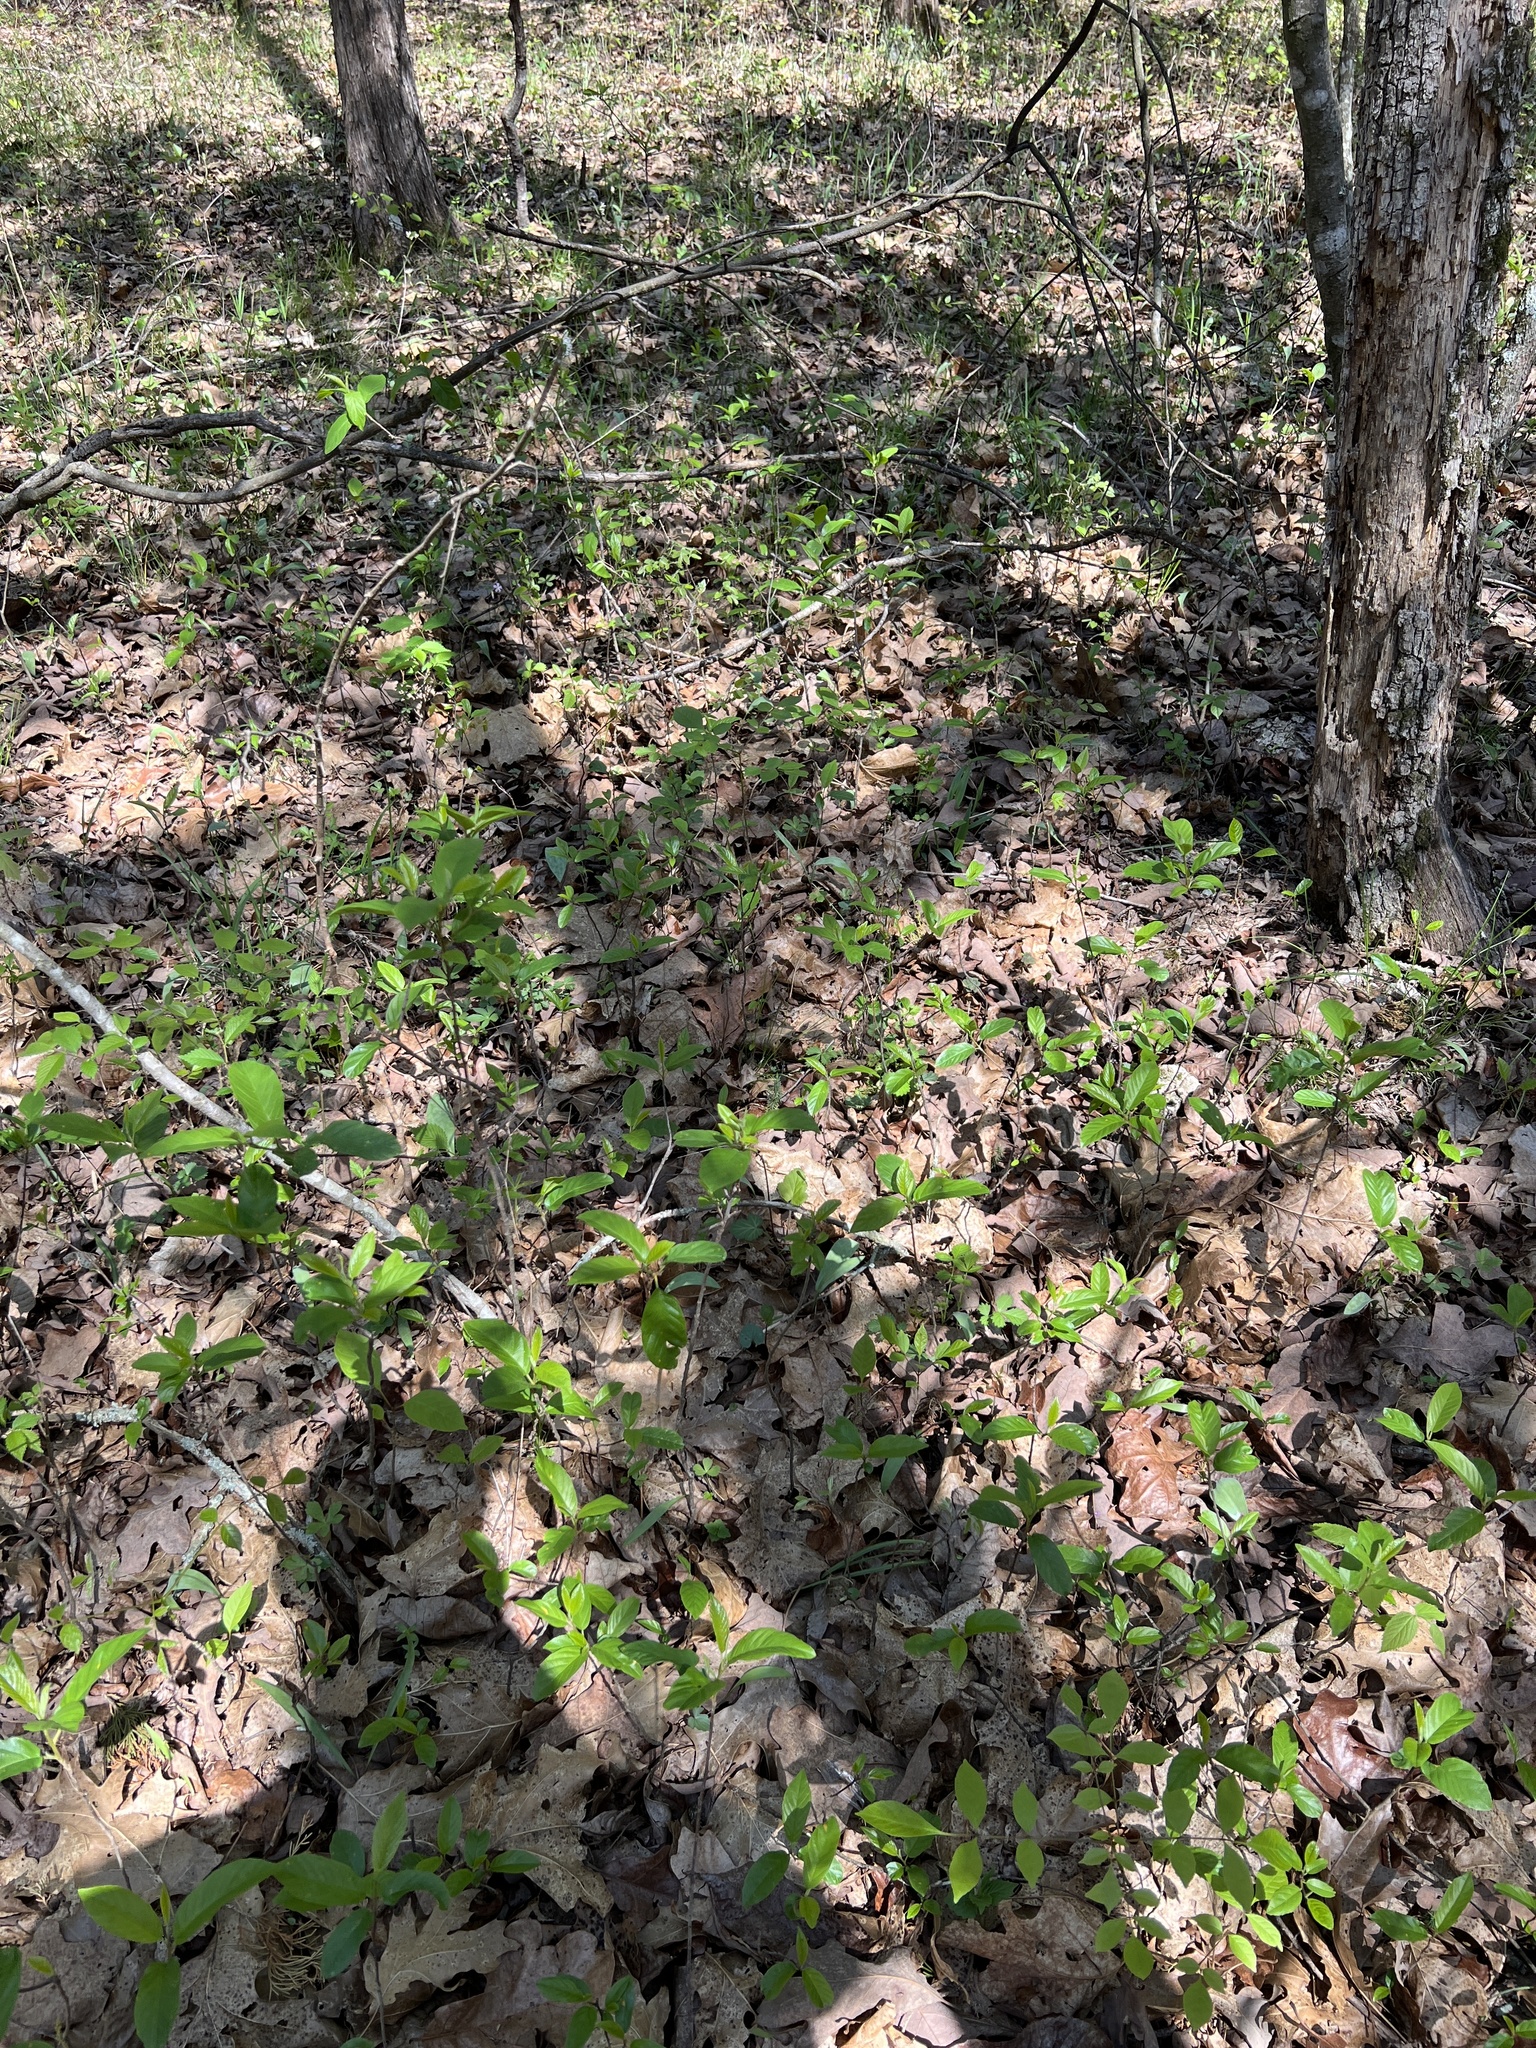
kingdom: Plantae
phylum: Tracheophyta
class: Magnoliopsida
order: Rosales
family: Rhamnaceae
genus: Frangula
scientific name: Frangula caroliniana
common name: Carolina buckthorn
